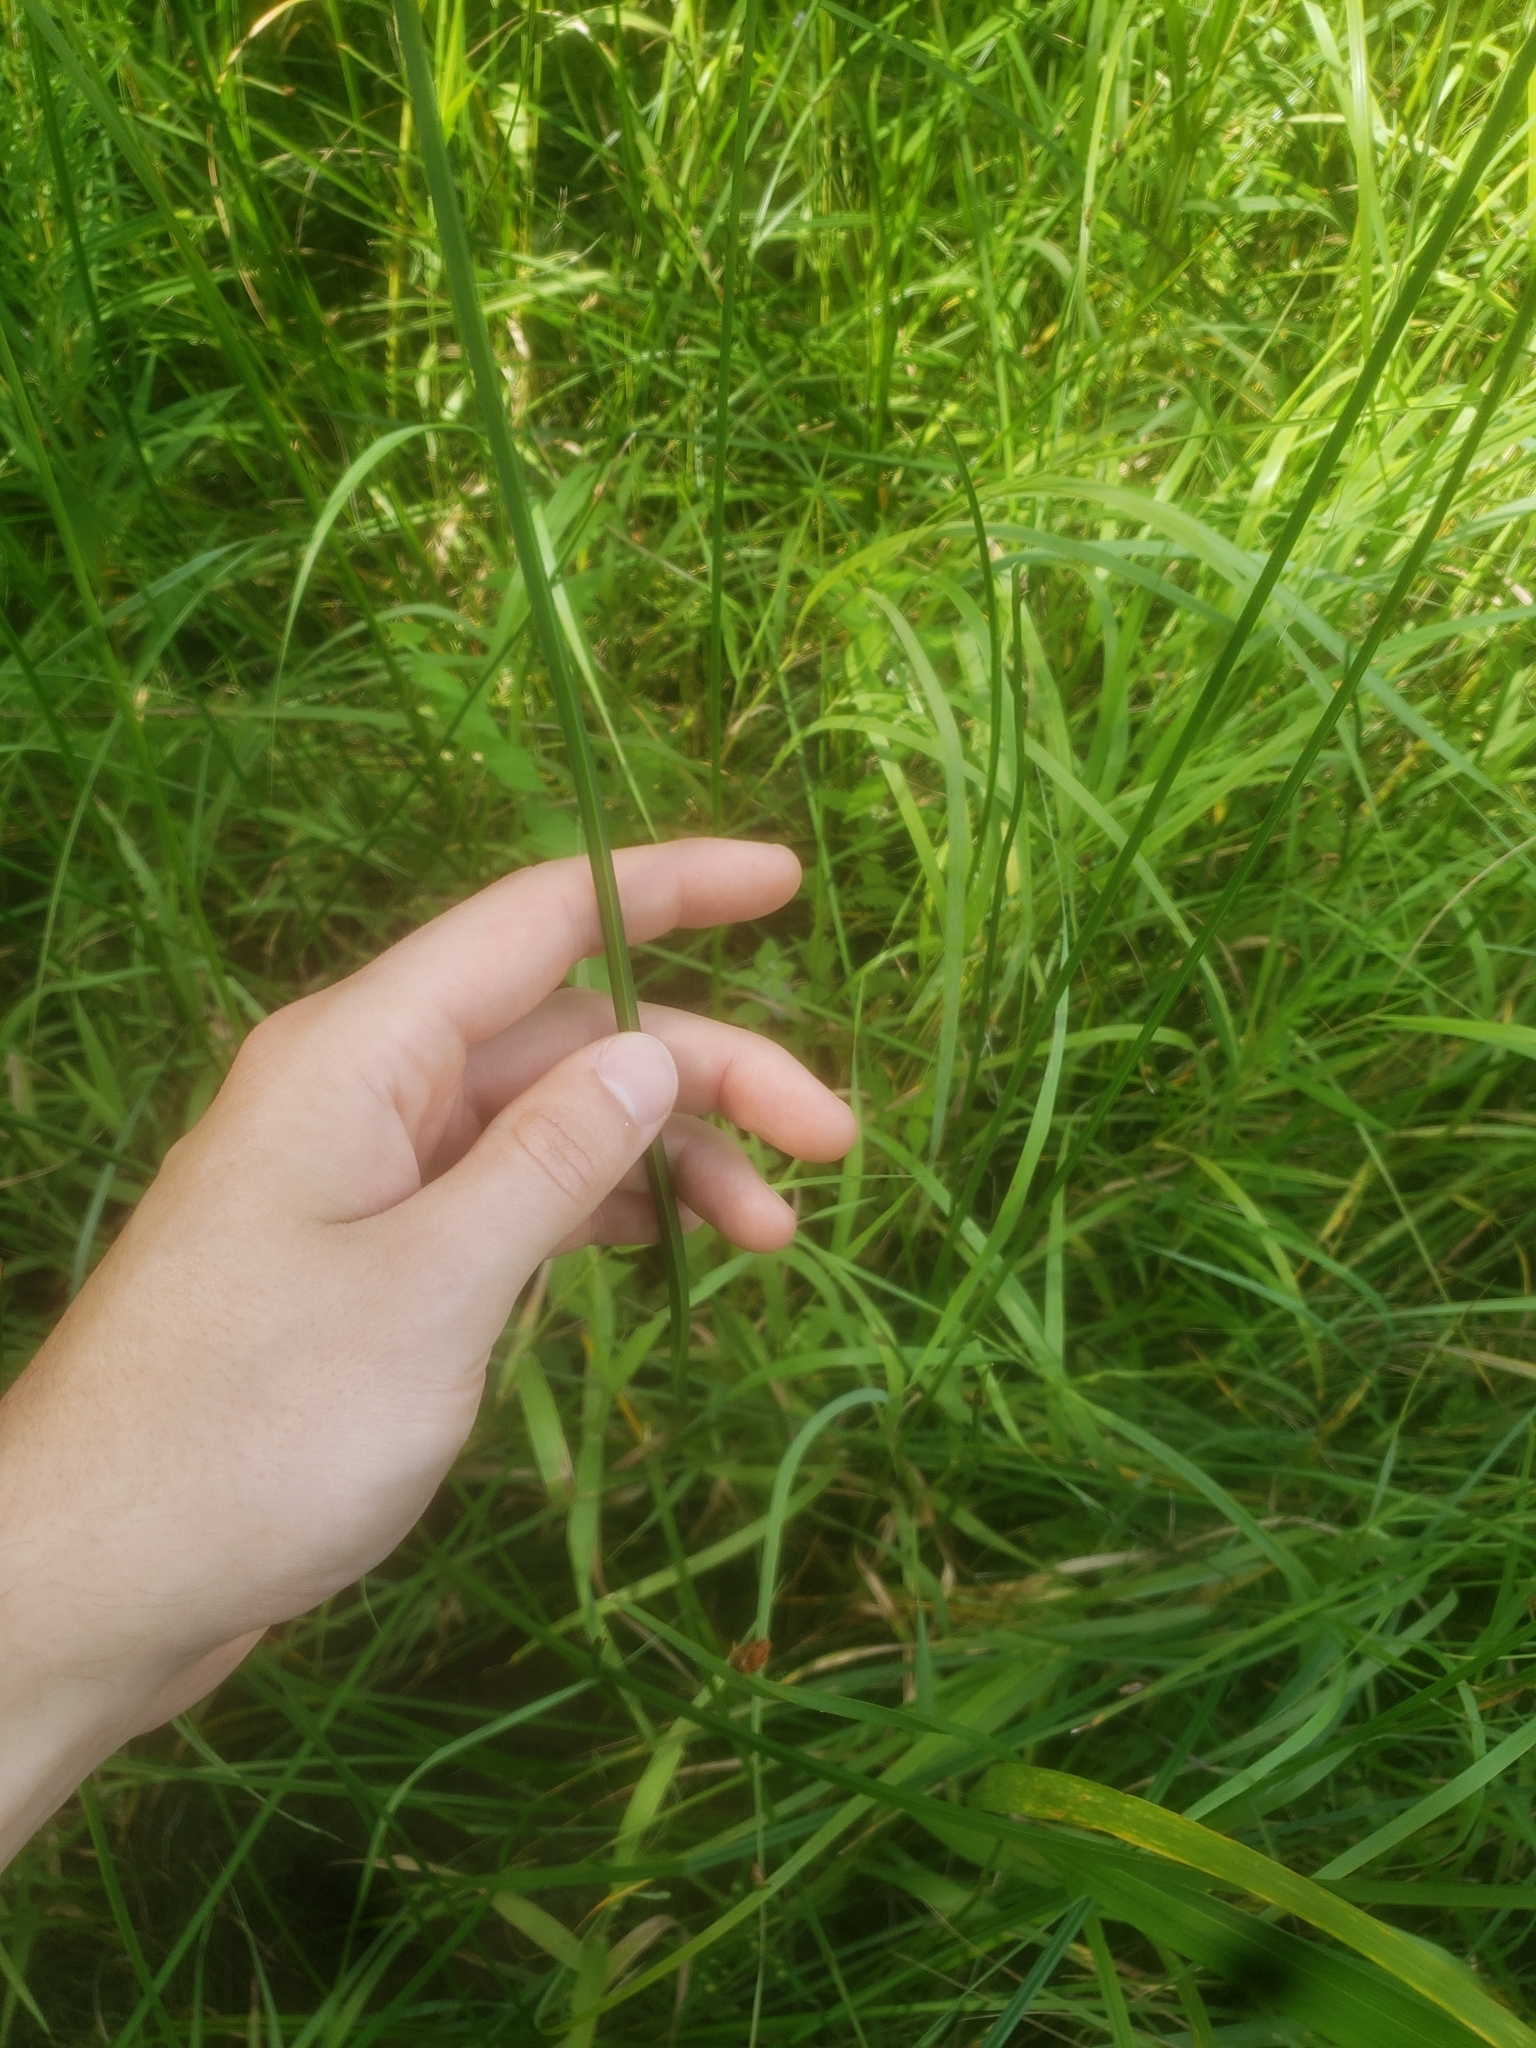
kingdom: Plantae
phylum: Tracheophyta
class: Liliopsida
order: Poales
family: Cyperaceae
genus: Schoenoplectus
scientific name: Schoenoplectus pungens
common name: Sharp club-rush
